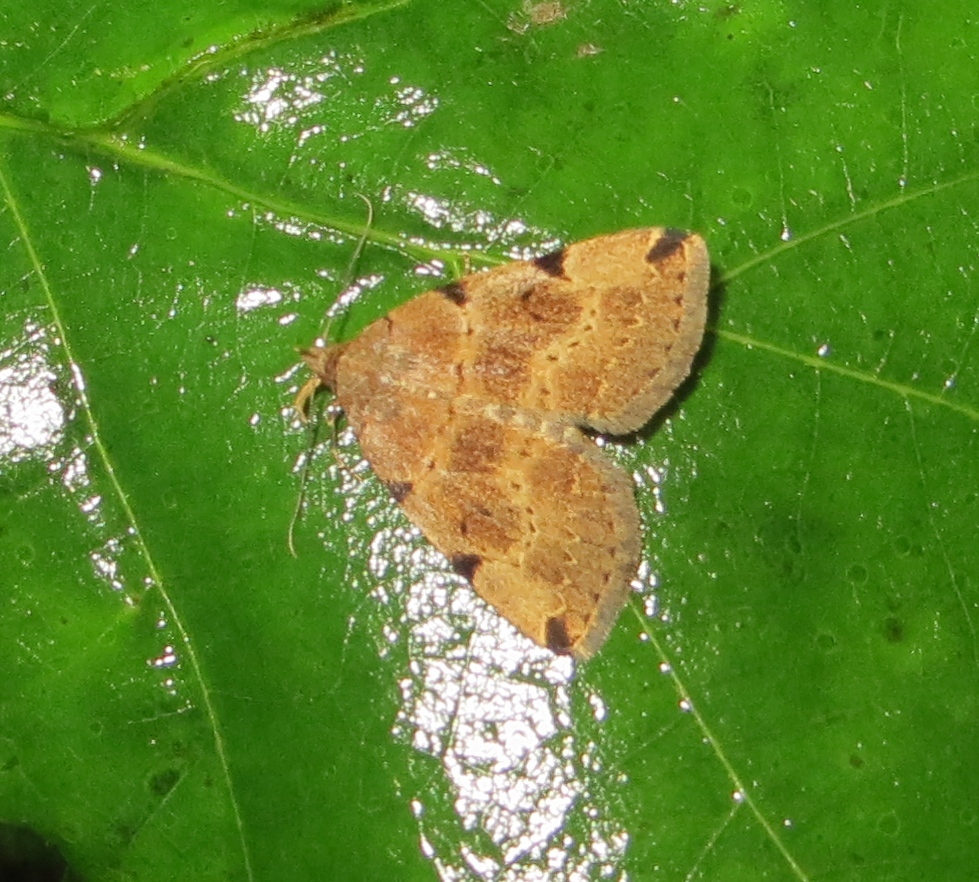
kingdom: Animalia
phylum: Arthropoda
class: Insecta
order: Lepidoptera
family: Erebidae
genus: Zanclognatha
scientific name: Zanclognatha lituralis
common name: Lettered fan-foot
